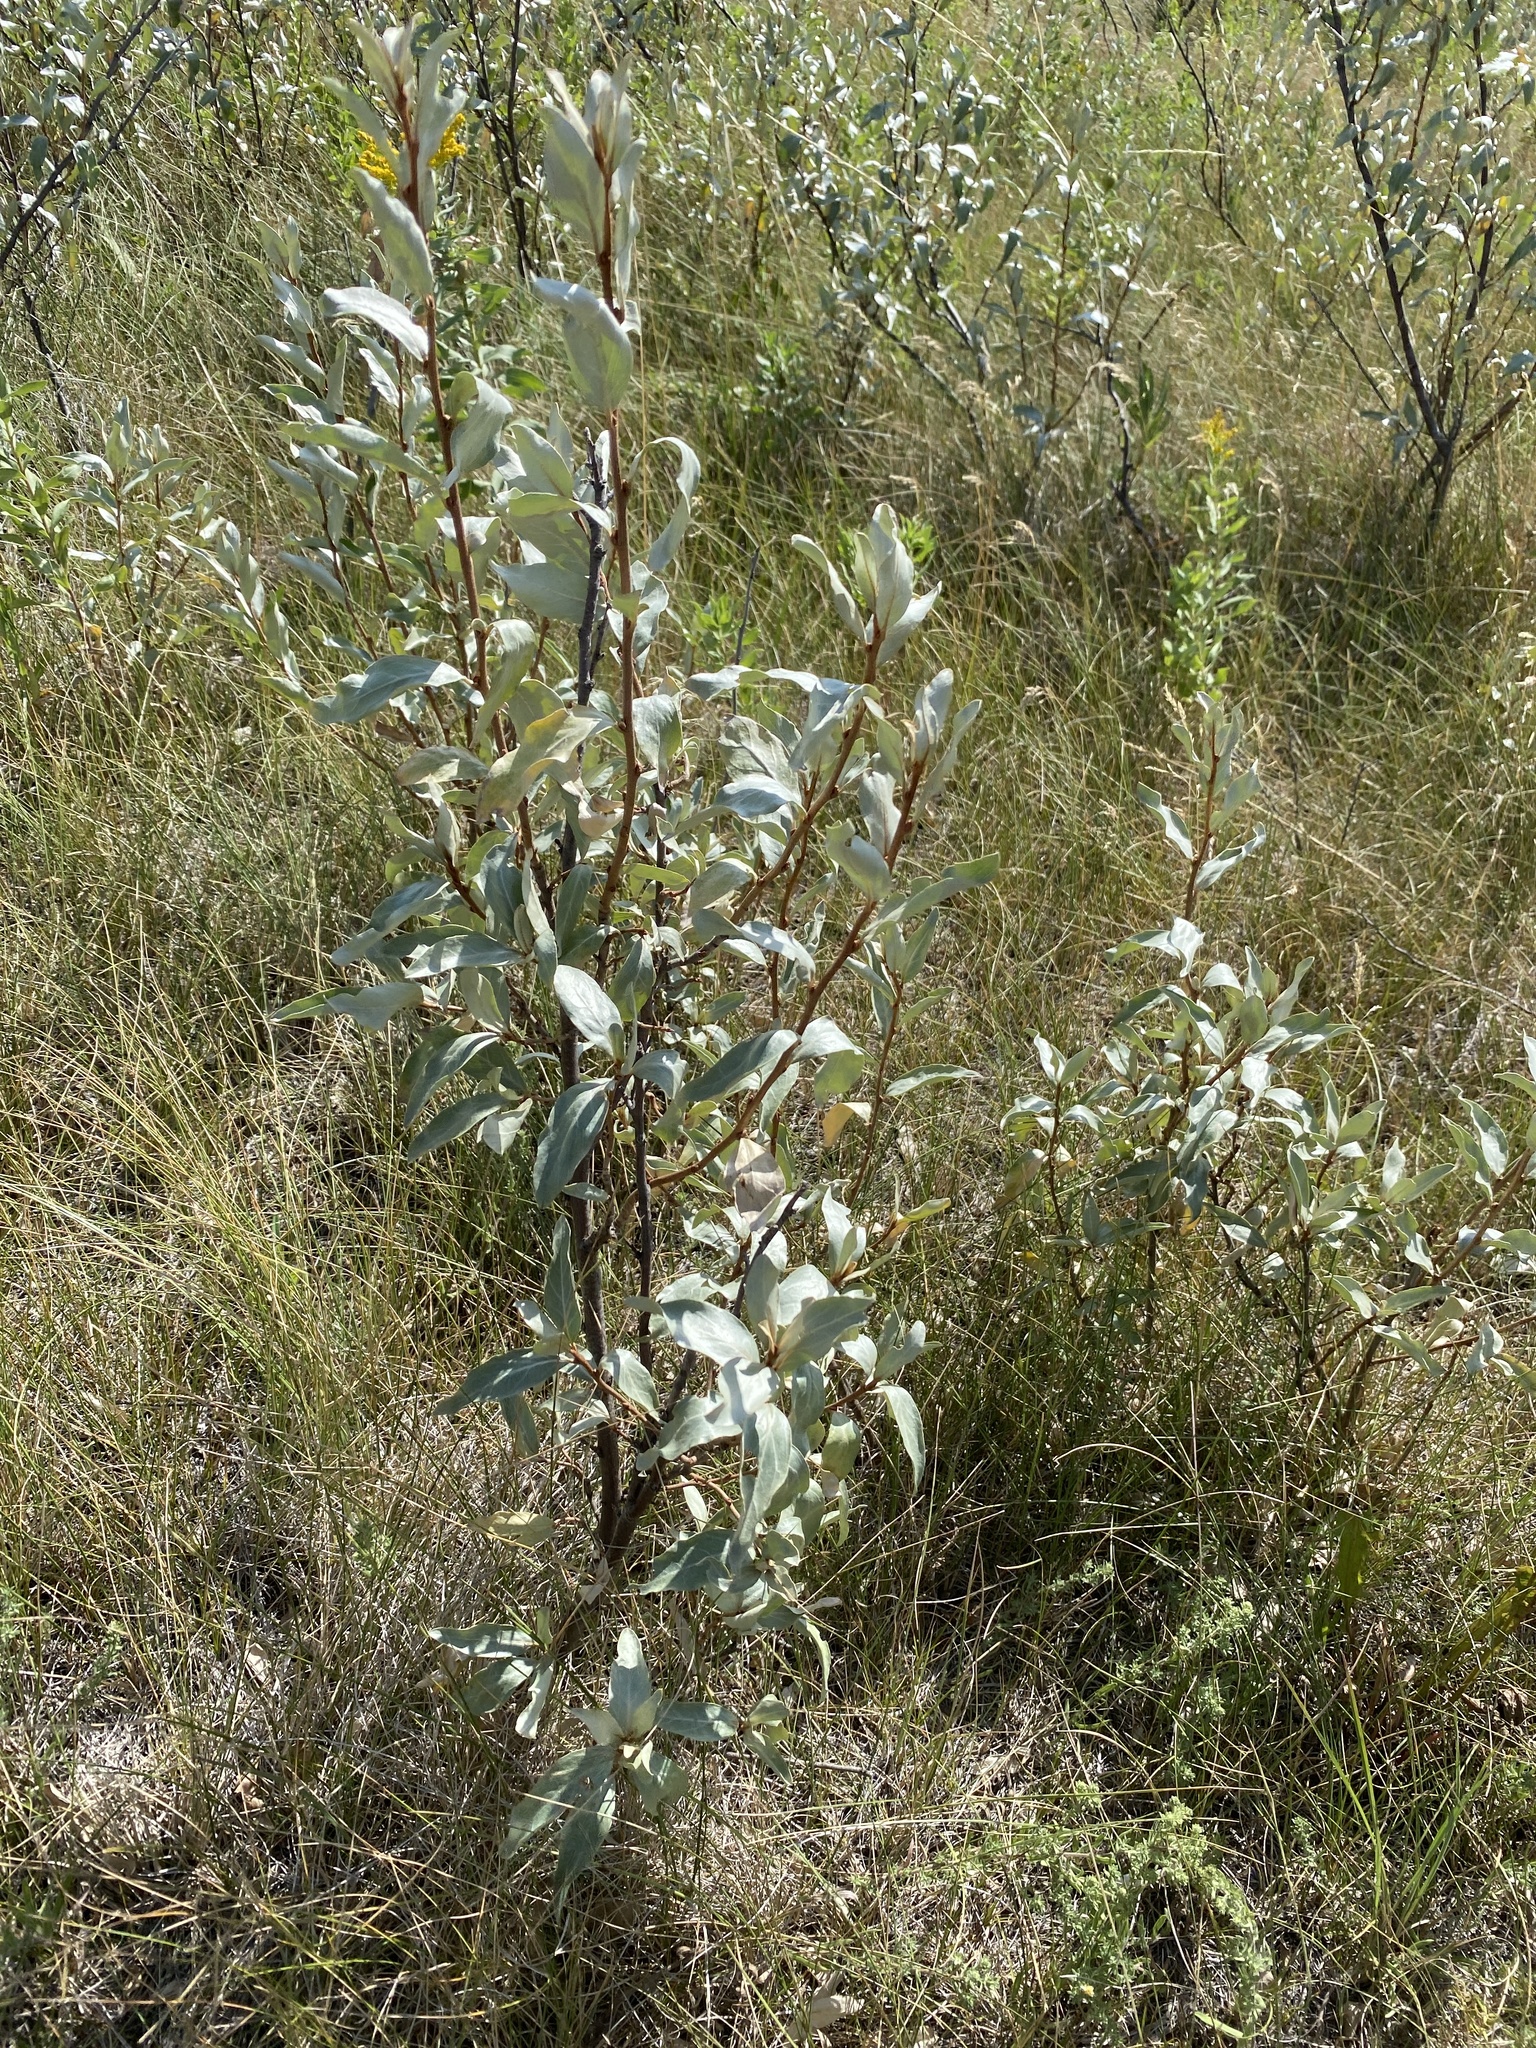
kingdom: Plantae
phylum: Tracheophyta
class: Magnoliopsida
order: Rosales
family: Elaeagnaceae
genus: Elaeagnus
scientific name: Elaeagnus commutata
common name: Silverberry
